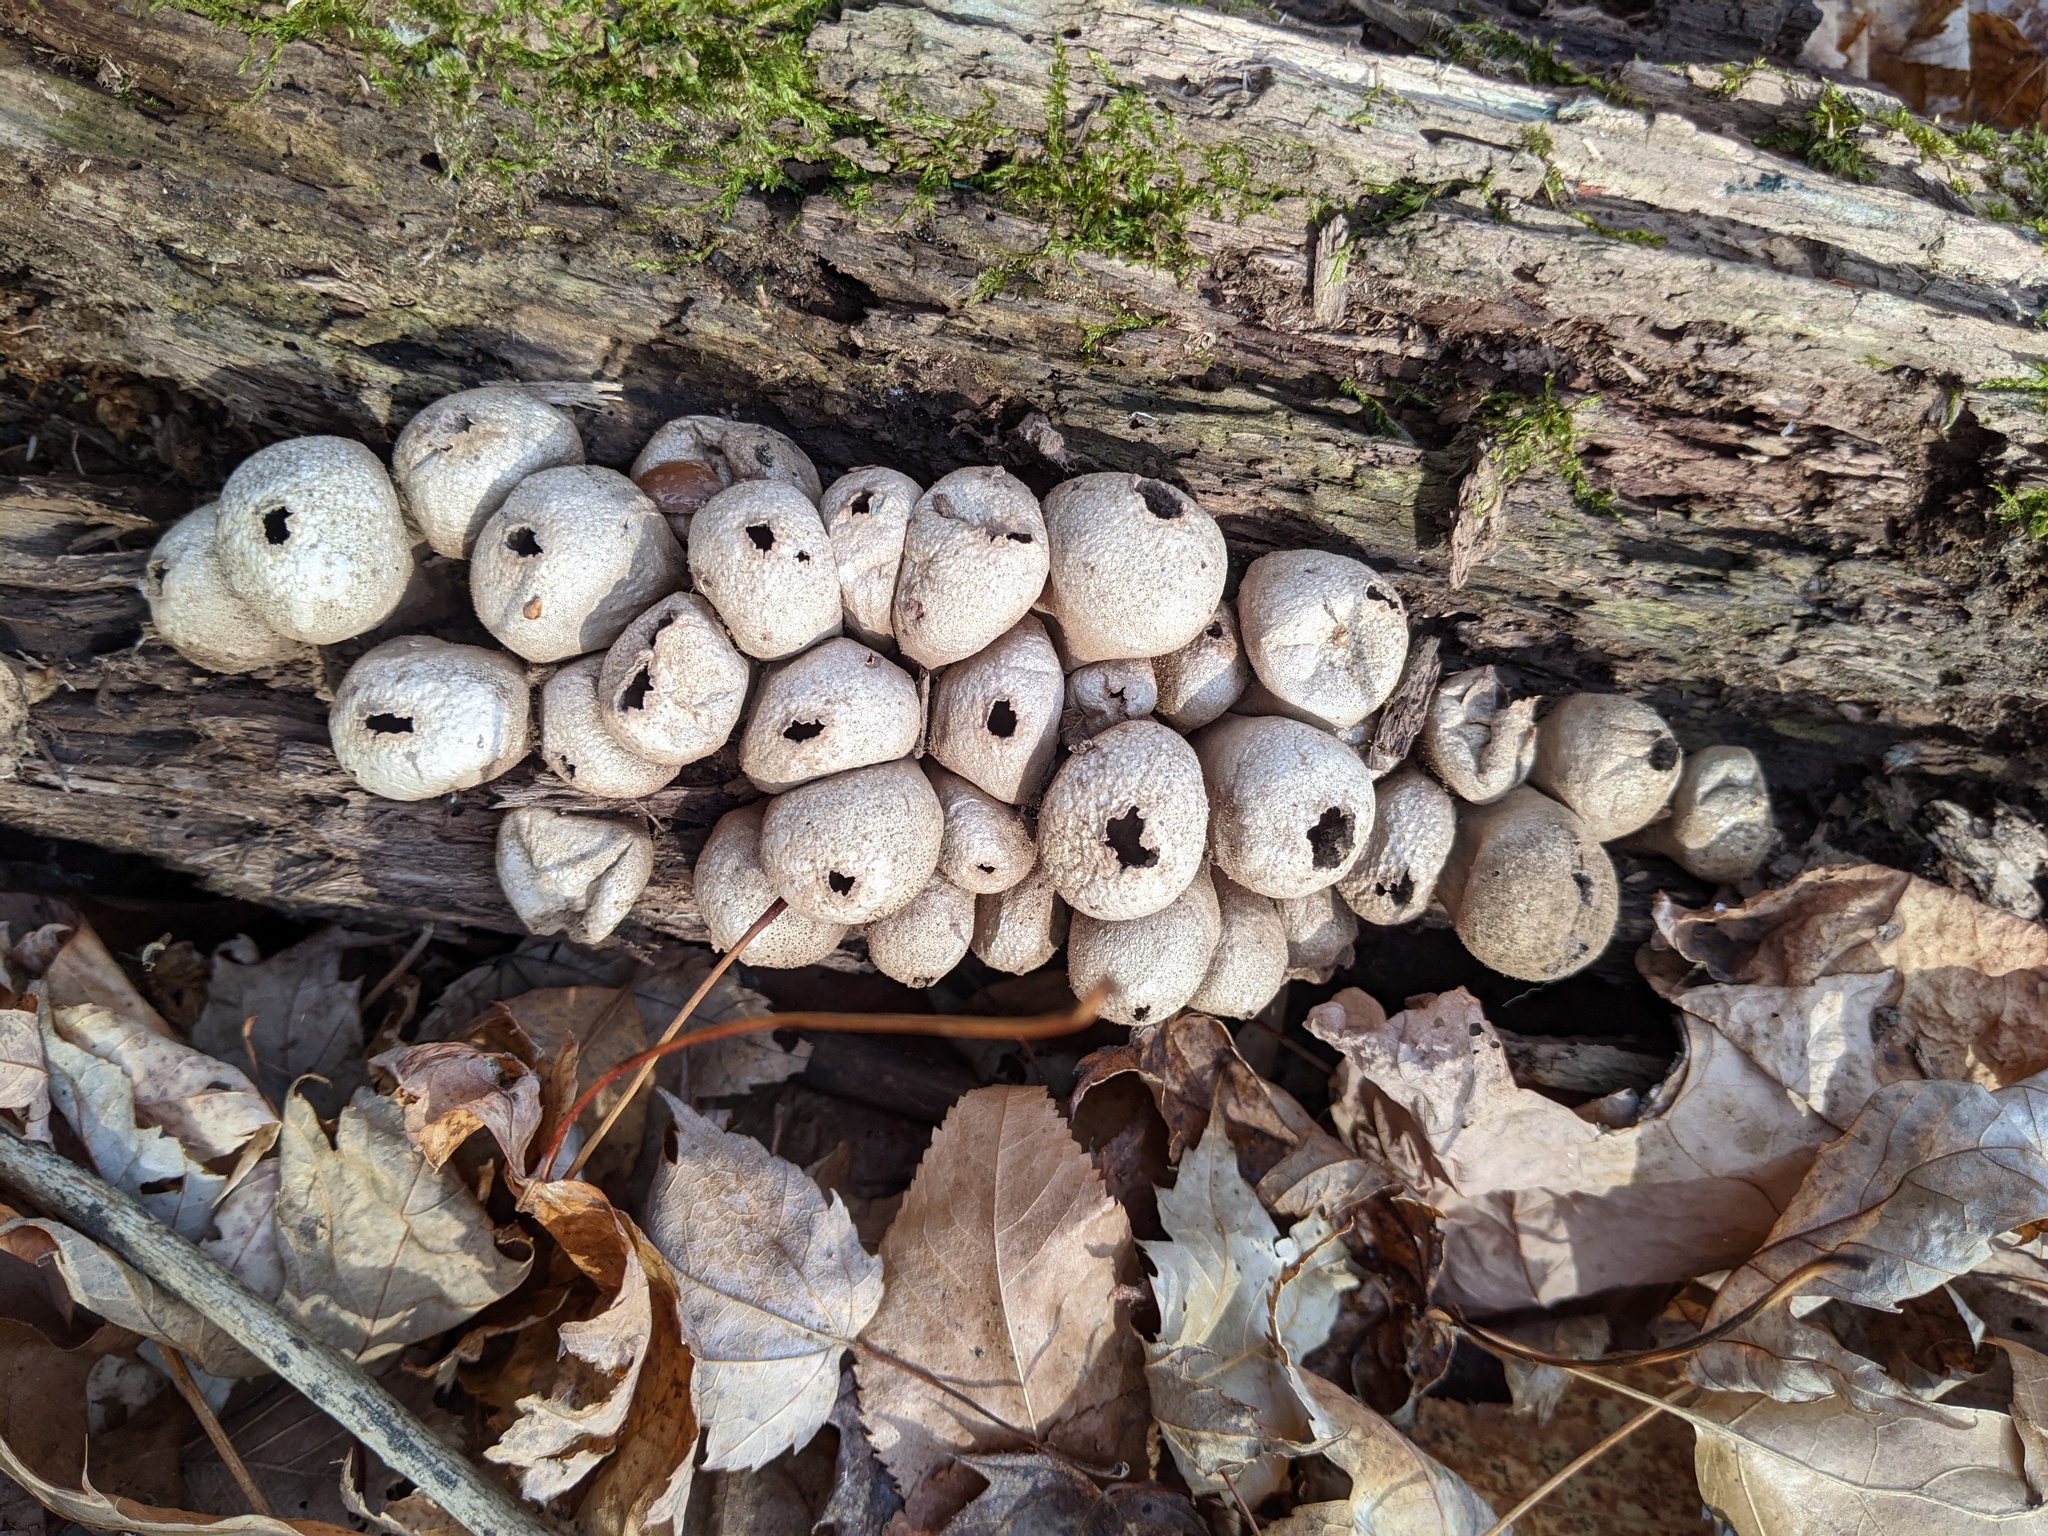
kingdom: Fungi
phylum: Basidiomycota
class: Agaricomycetes
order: Agaricales
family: Lycoperdaceae
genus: Apioperdon
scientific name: Apioperdon pyriforme
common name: Pear-shaped puffball
